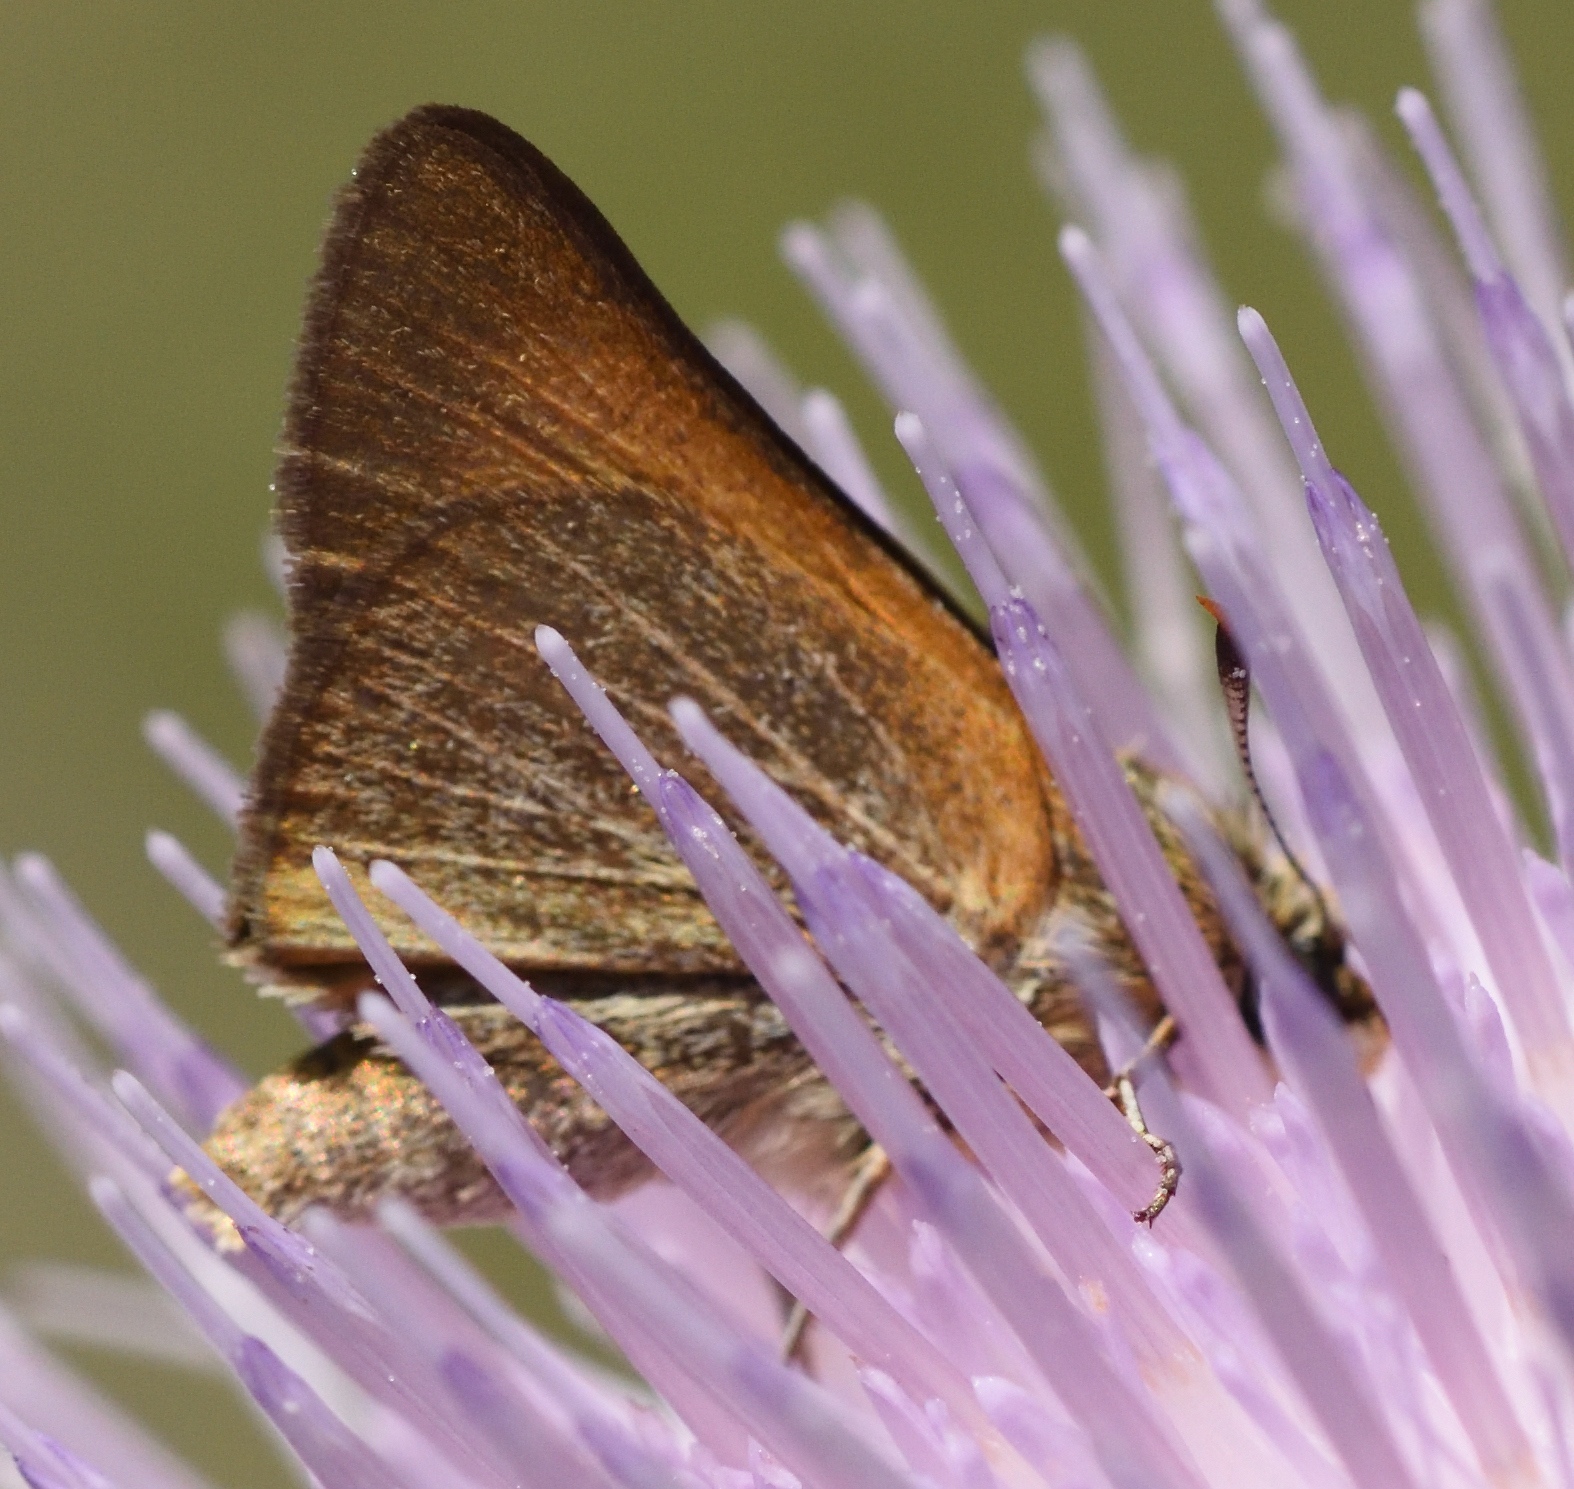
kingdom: Animalia
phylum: Arthropoda
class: Insecta
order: Lepidoptera
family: Hesperiidae
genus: Atrytone
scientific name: Atrytone arogos
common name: Arogos skipper
